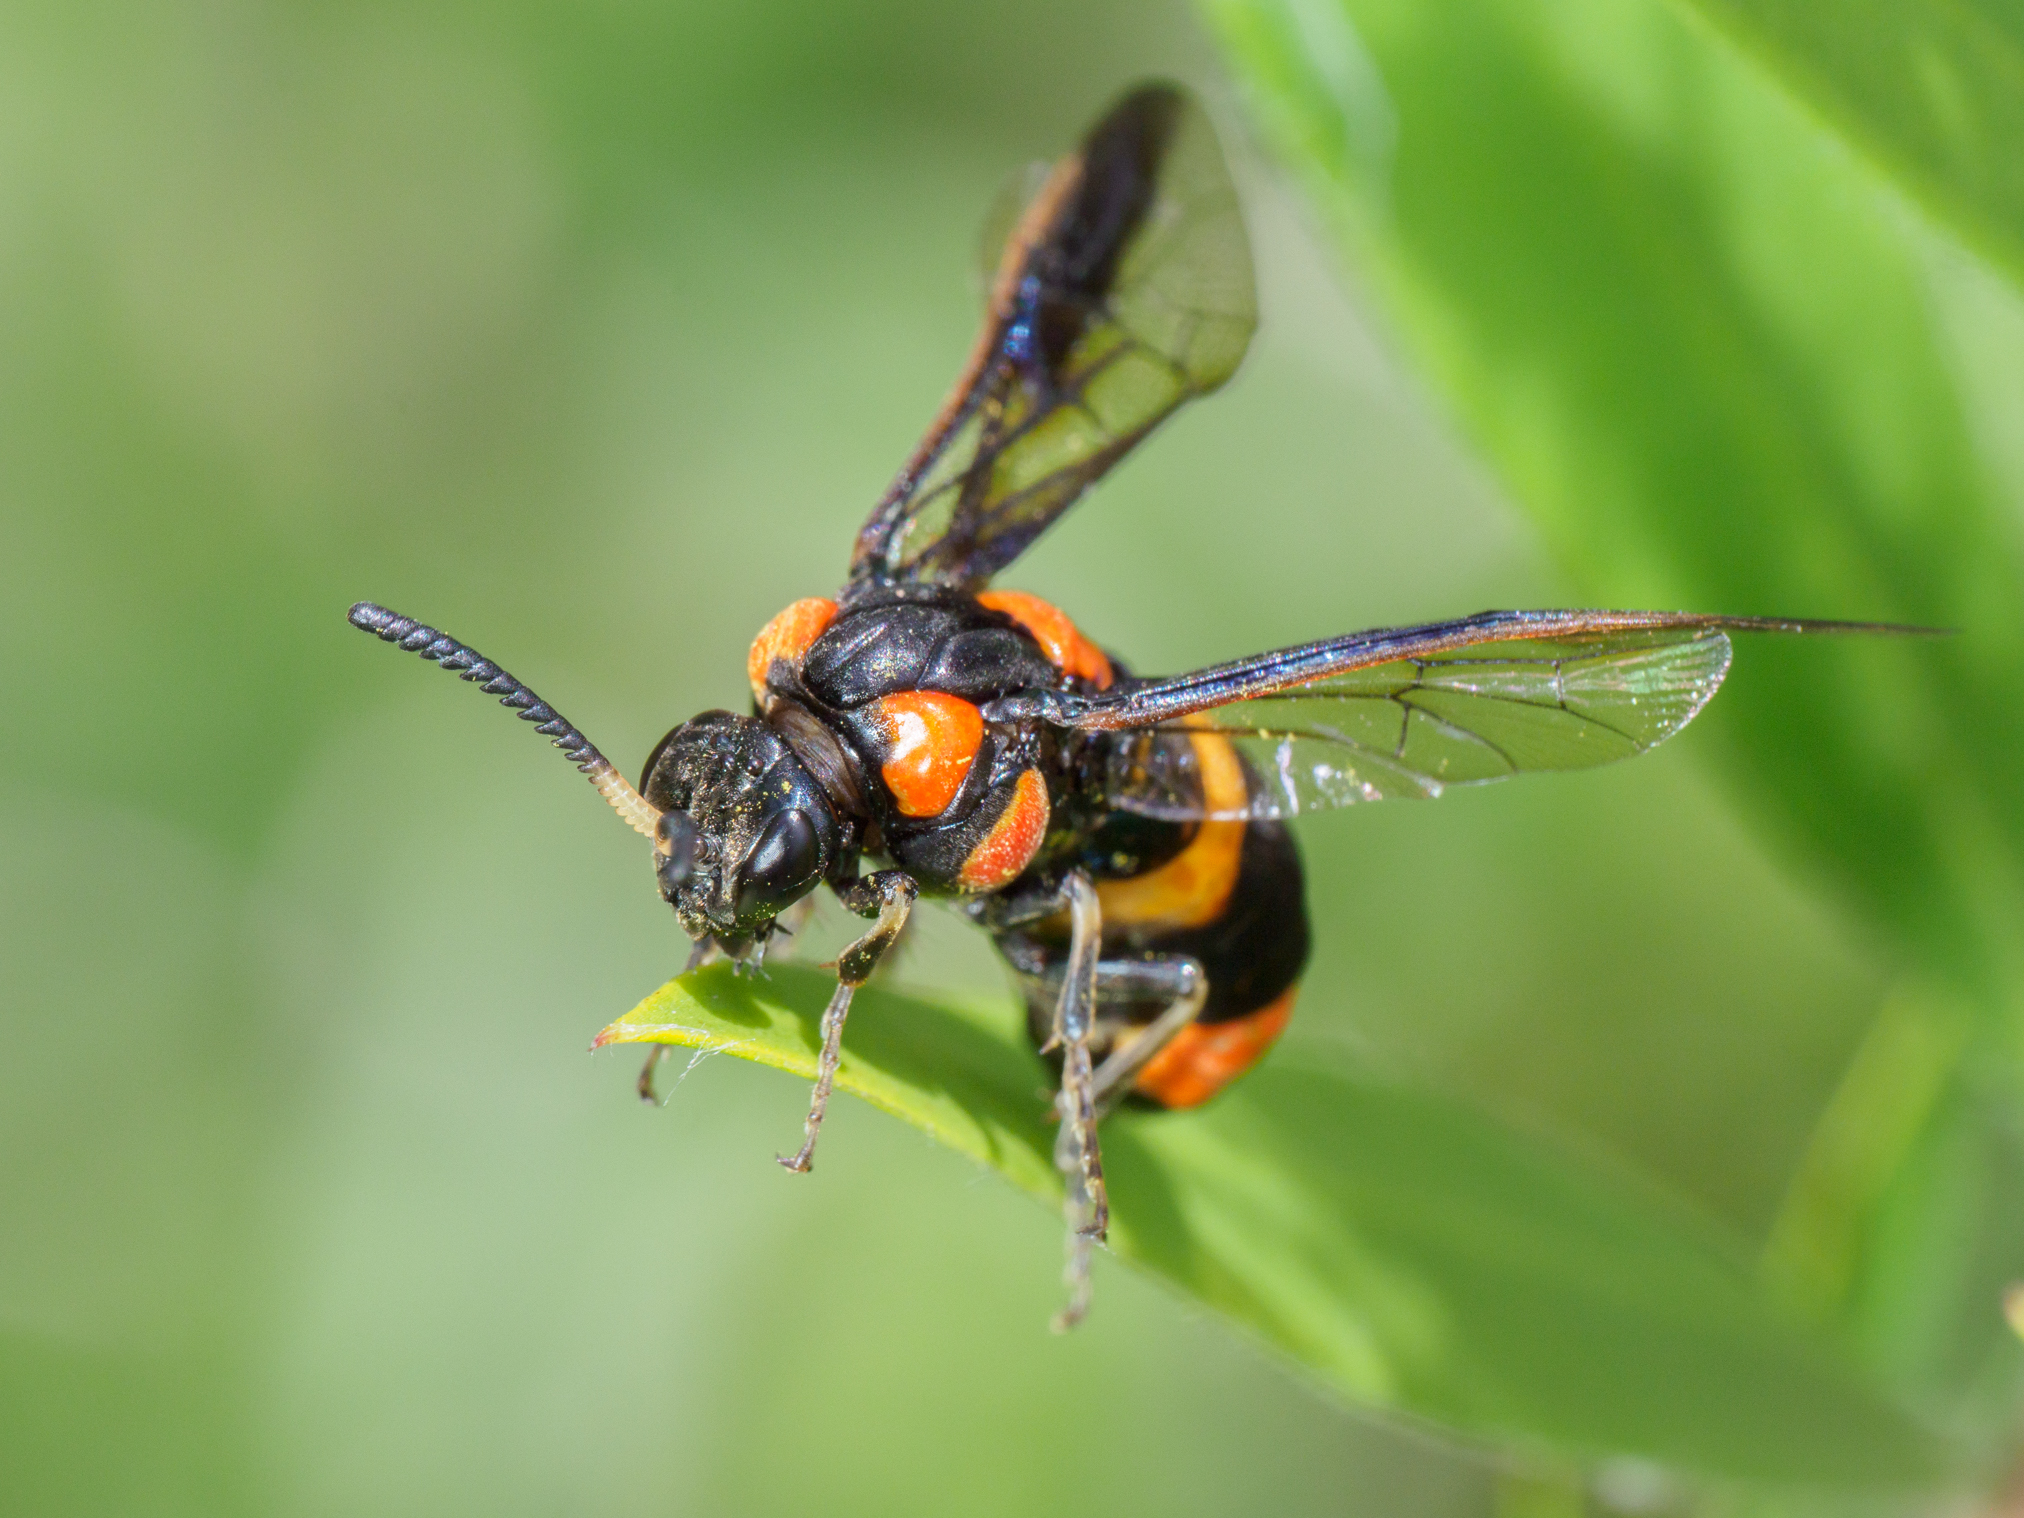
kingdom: Animalia
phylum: Arthropoda
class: Insecta
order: Hymenoptera
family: Pergidae
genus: Pterygophorus
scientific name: Pterygophorus
